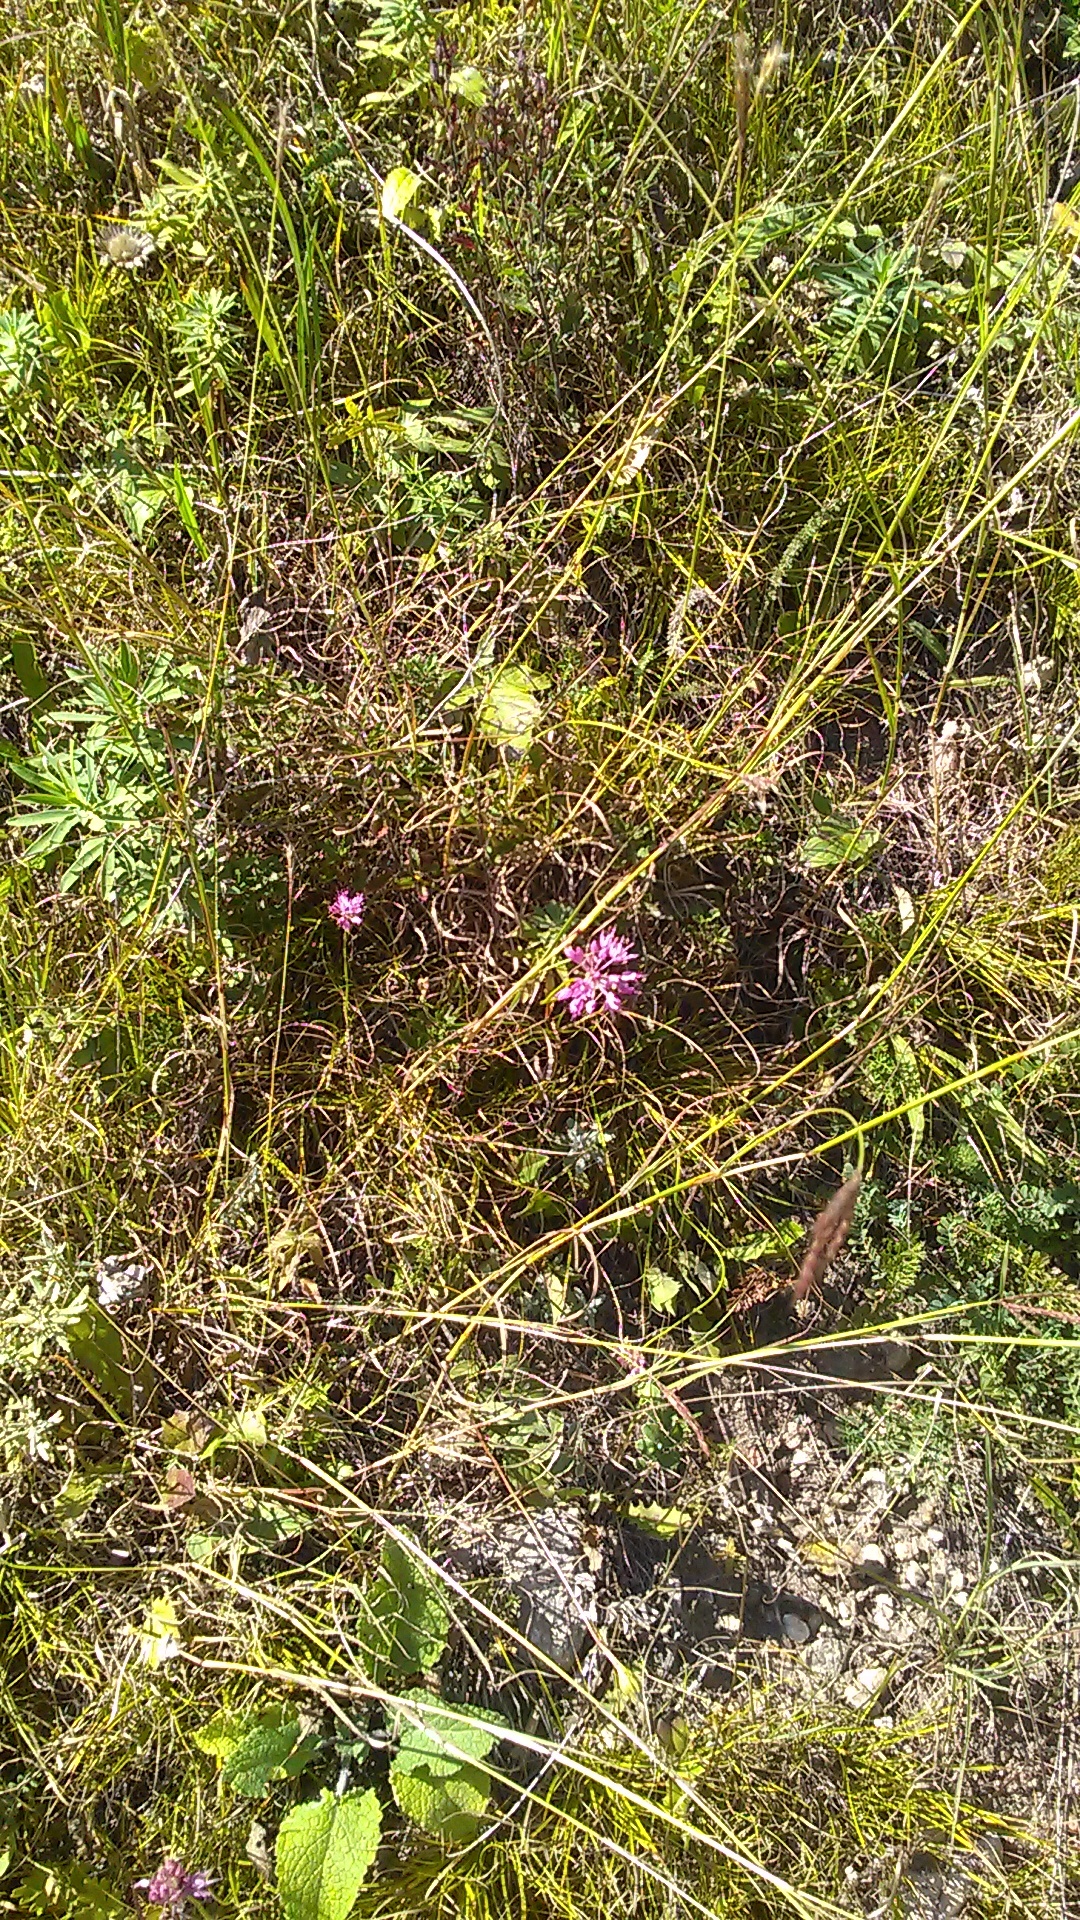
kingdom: Plantae
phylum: Tracheophyta
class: Liliopsida
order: Asparagales
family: Amaryllidaceae
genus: Allium
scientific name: Allium saxatile
